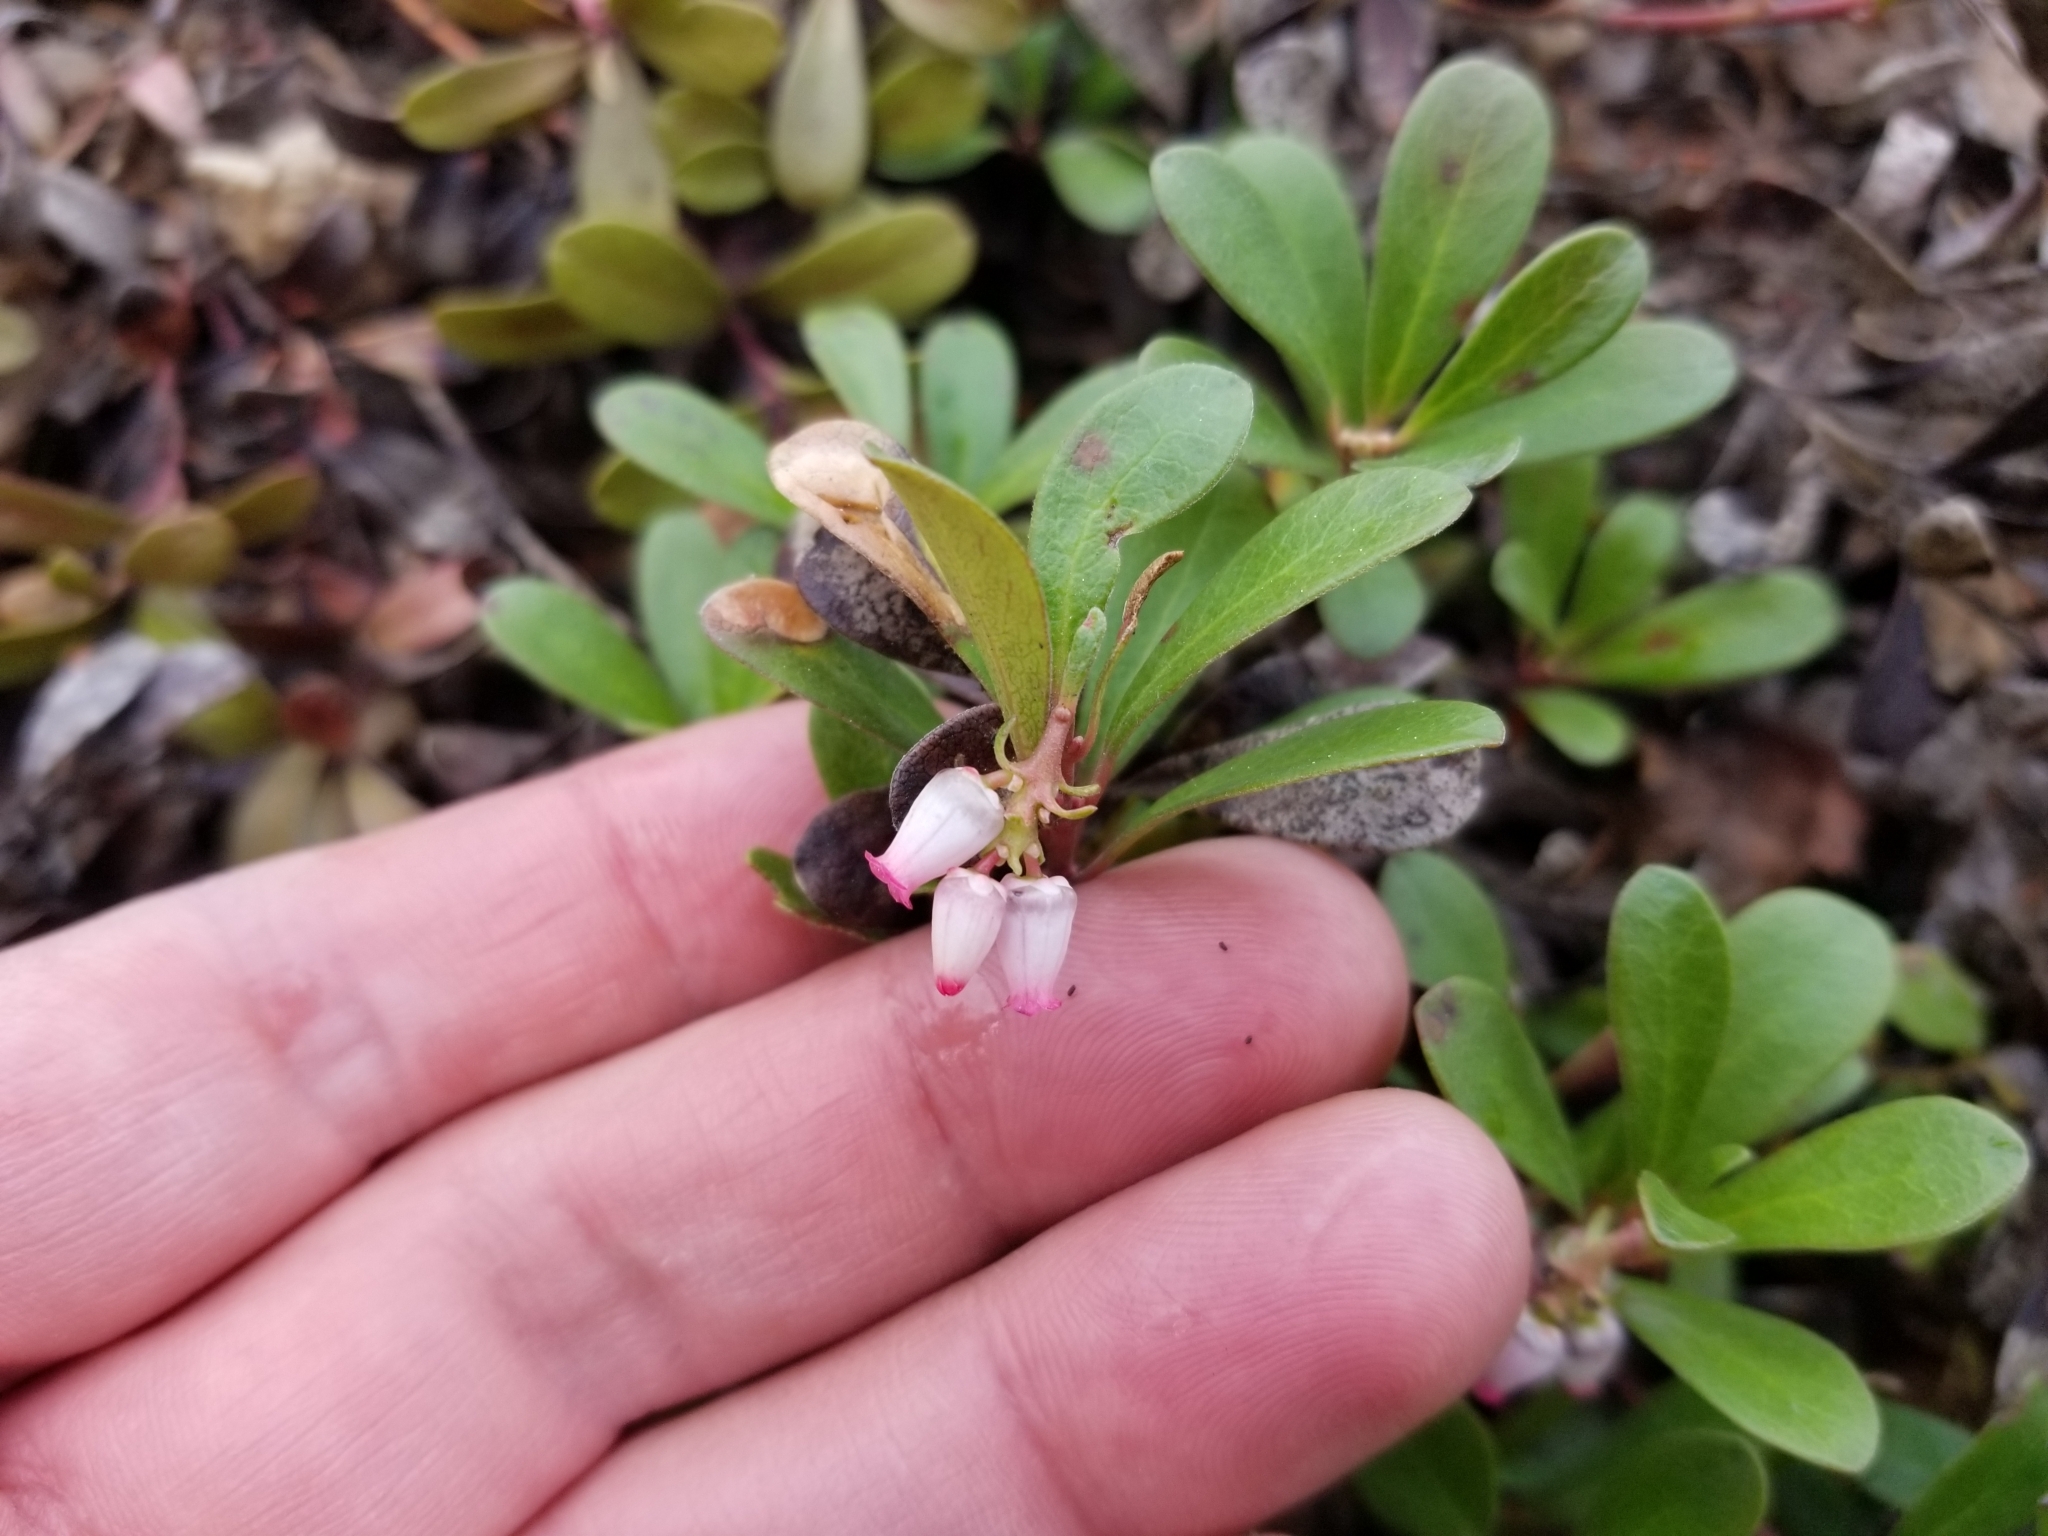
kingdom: Plantae
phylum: Tracheophyta
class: Magnoliopsida
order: Ericales
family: Ericaceae
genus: Arctostaphylos
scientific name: Arctostaphylos uva-ursi
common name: Bearberry
